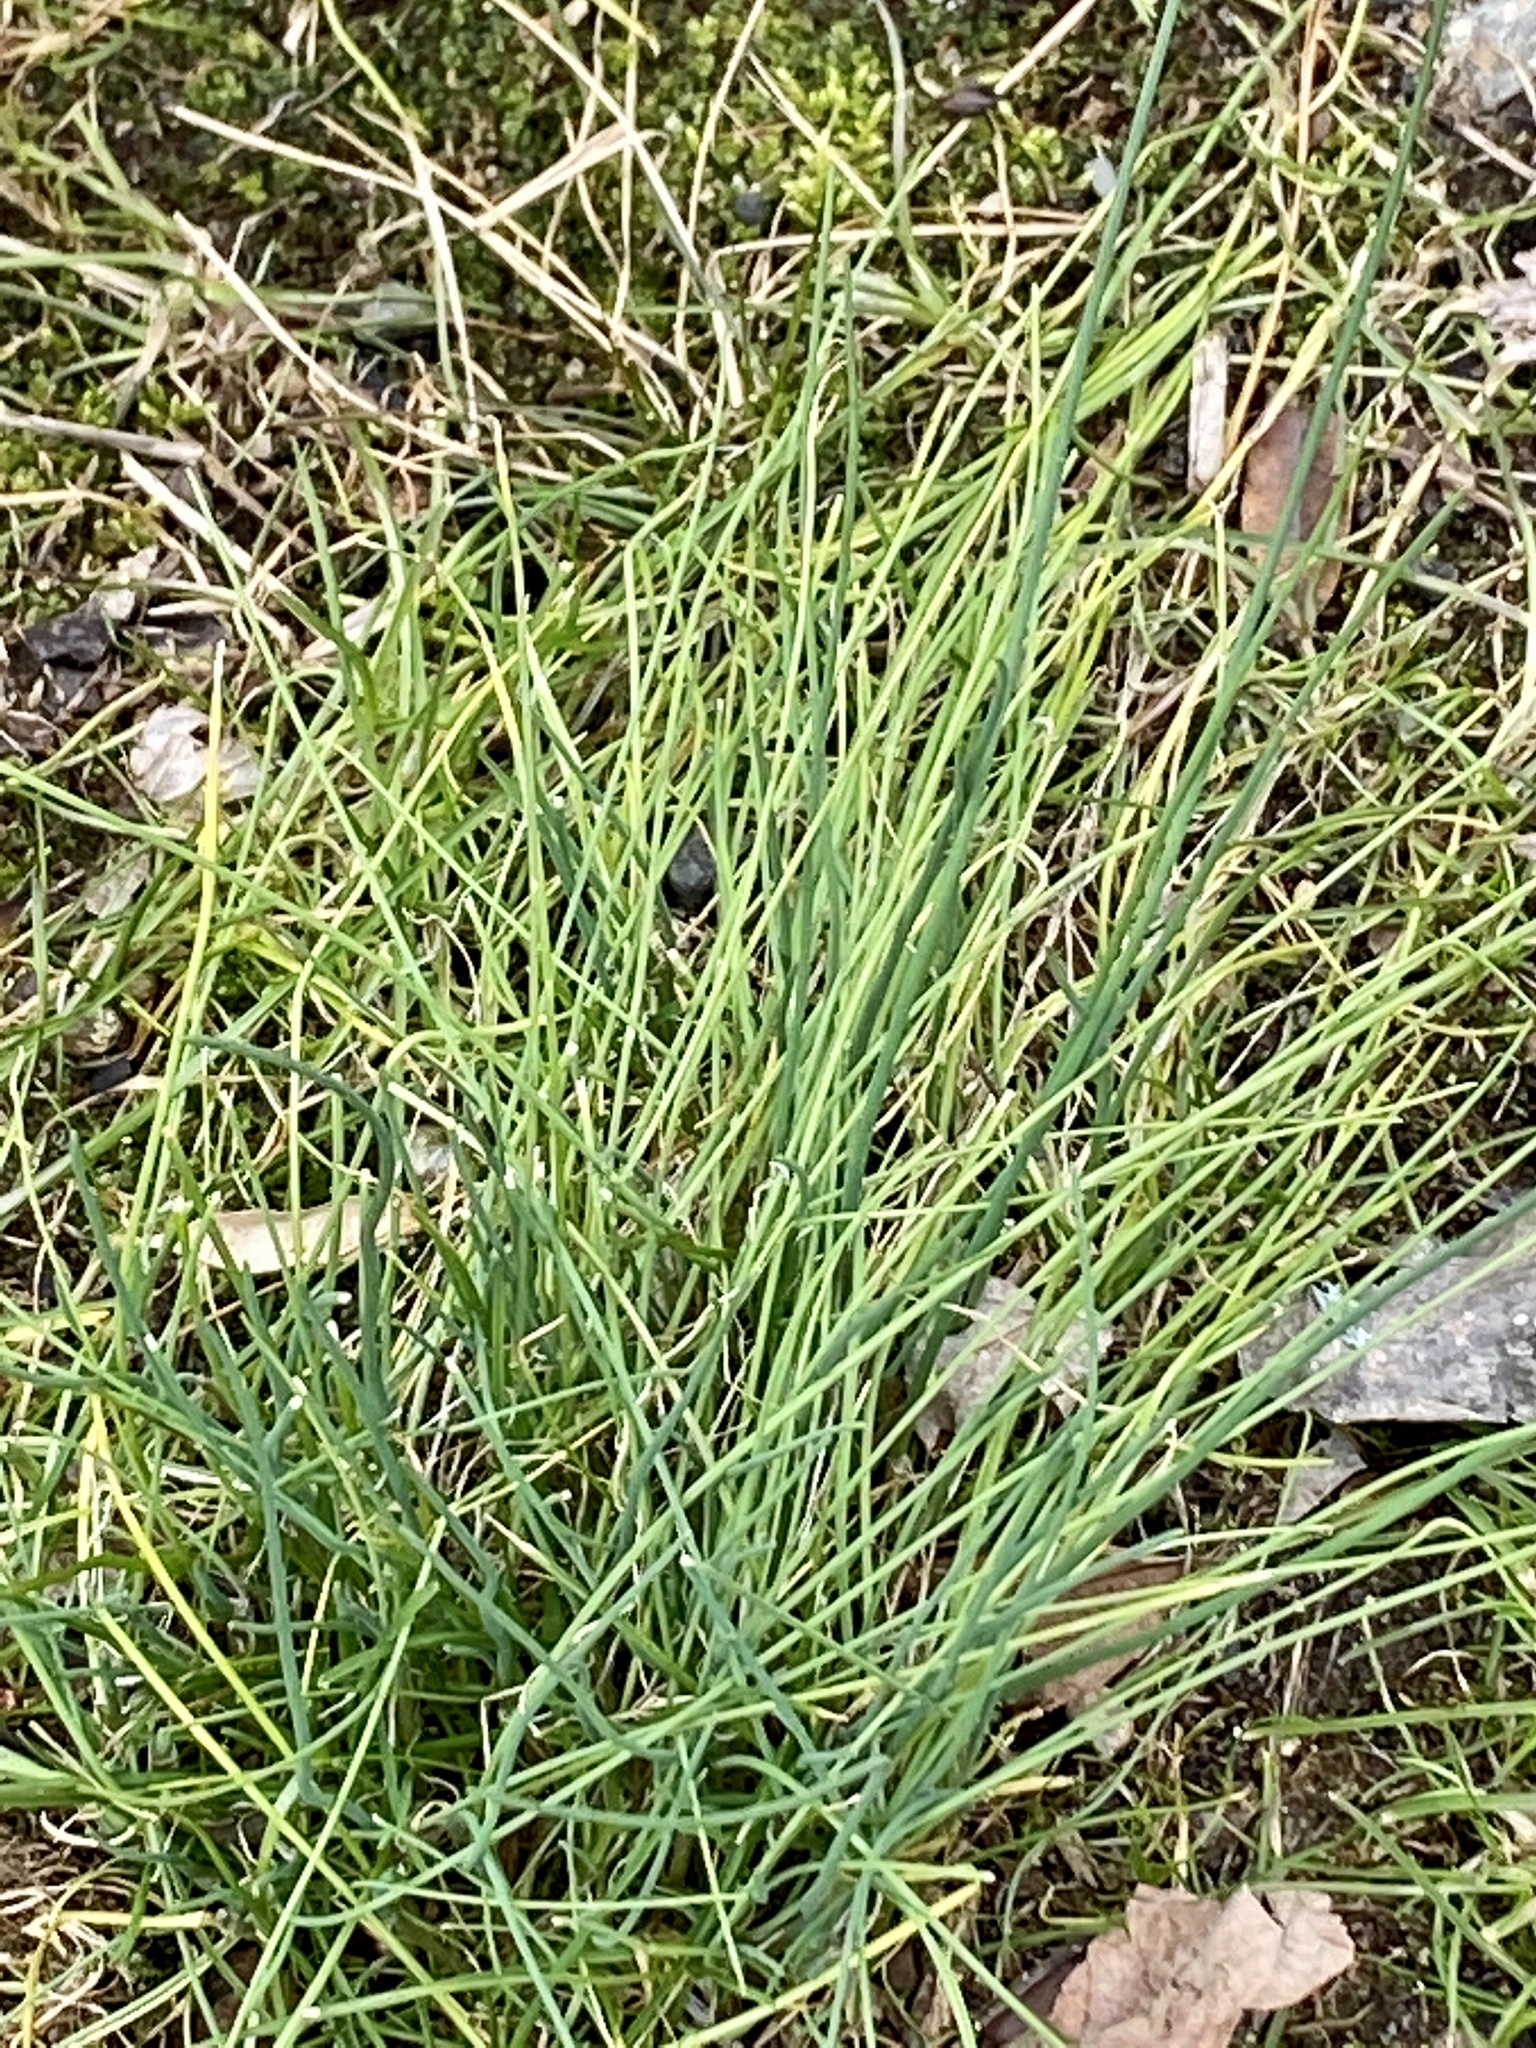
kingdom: Plantae
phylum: Tracheophyta
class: Liliopsida
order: Asparagales
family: Amaryllidaceae
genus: Allium
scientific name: Allium vineale
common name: Crow garlic
